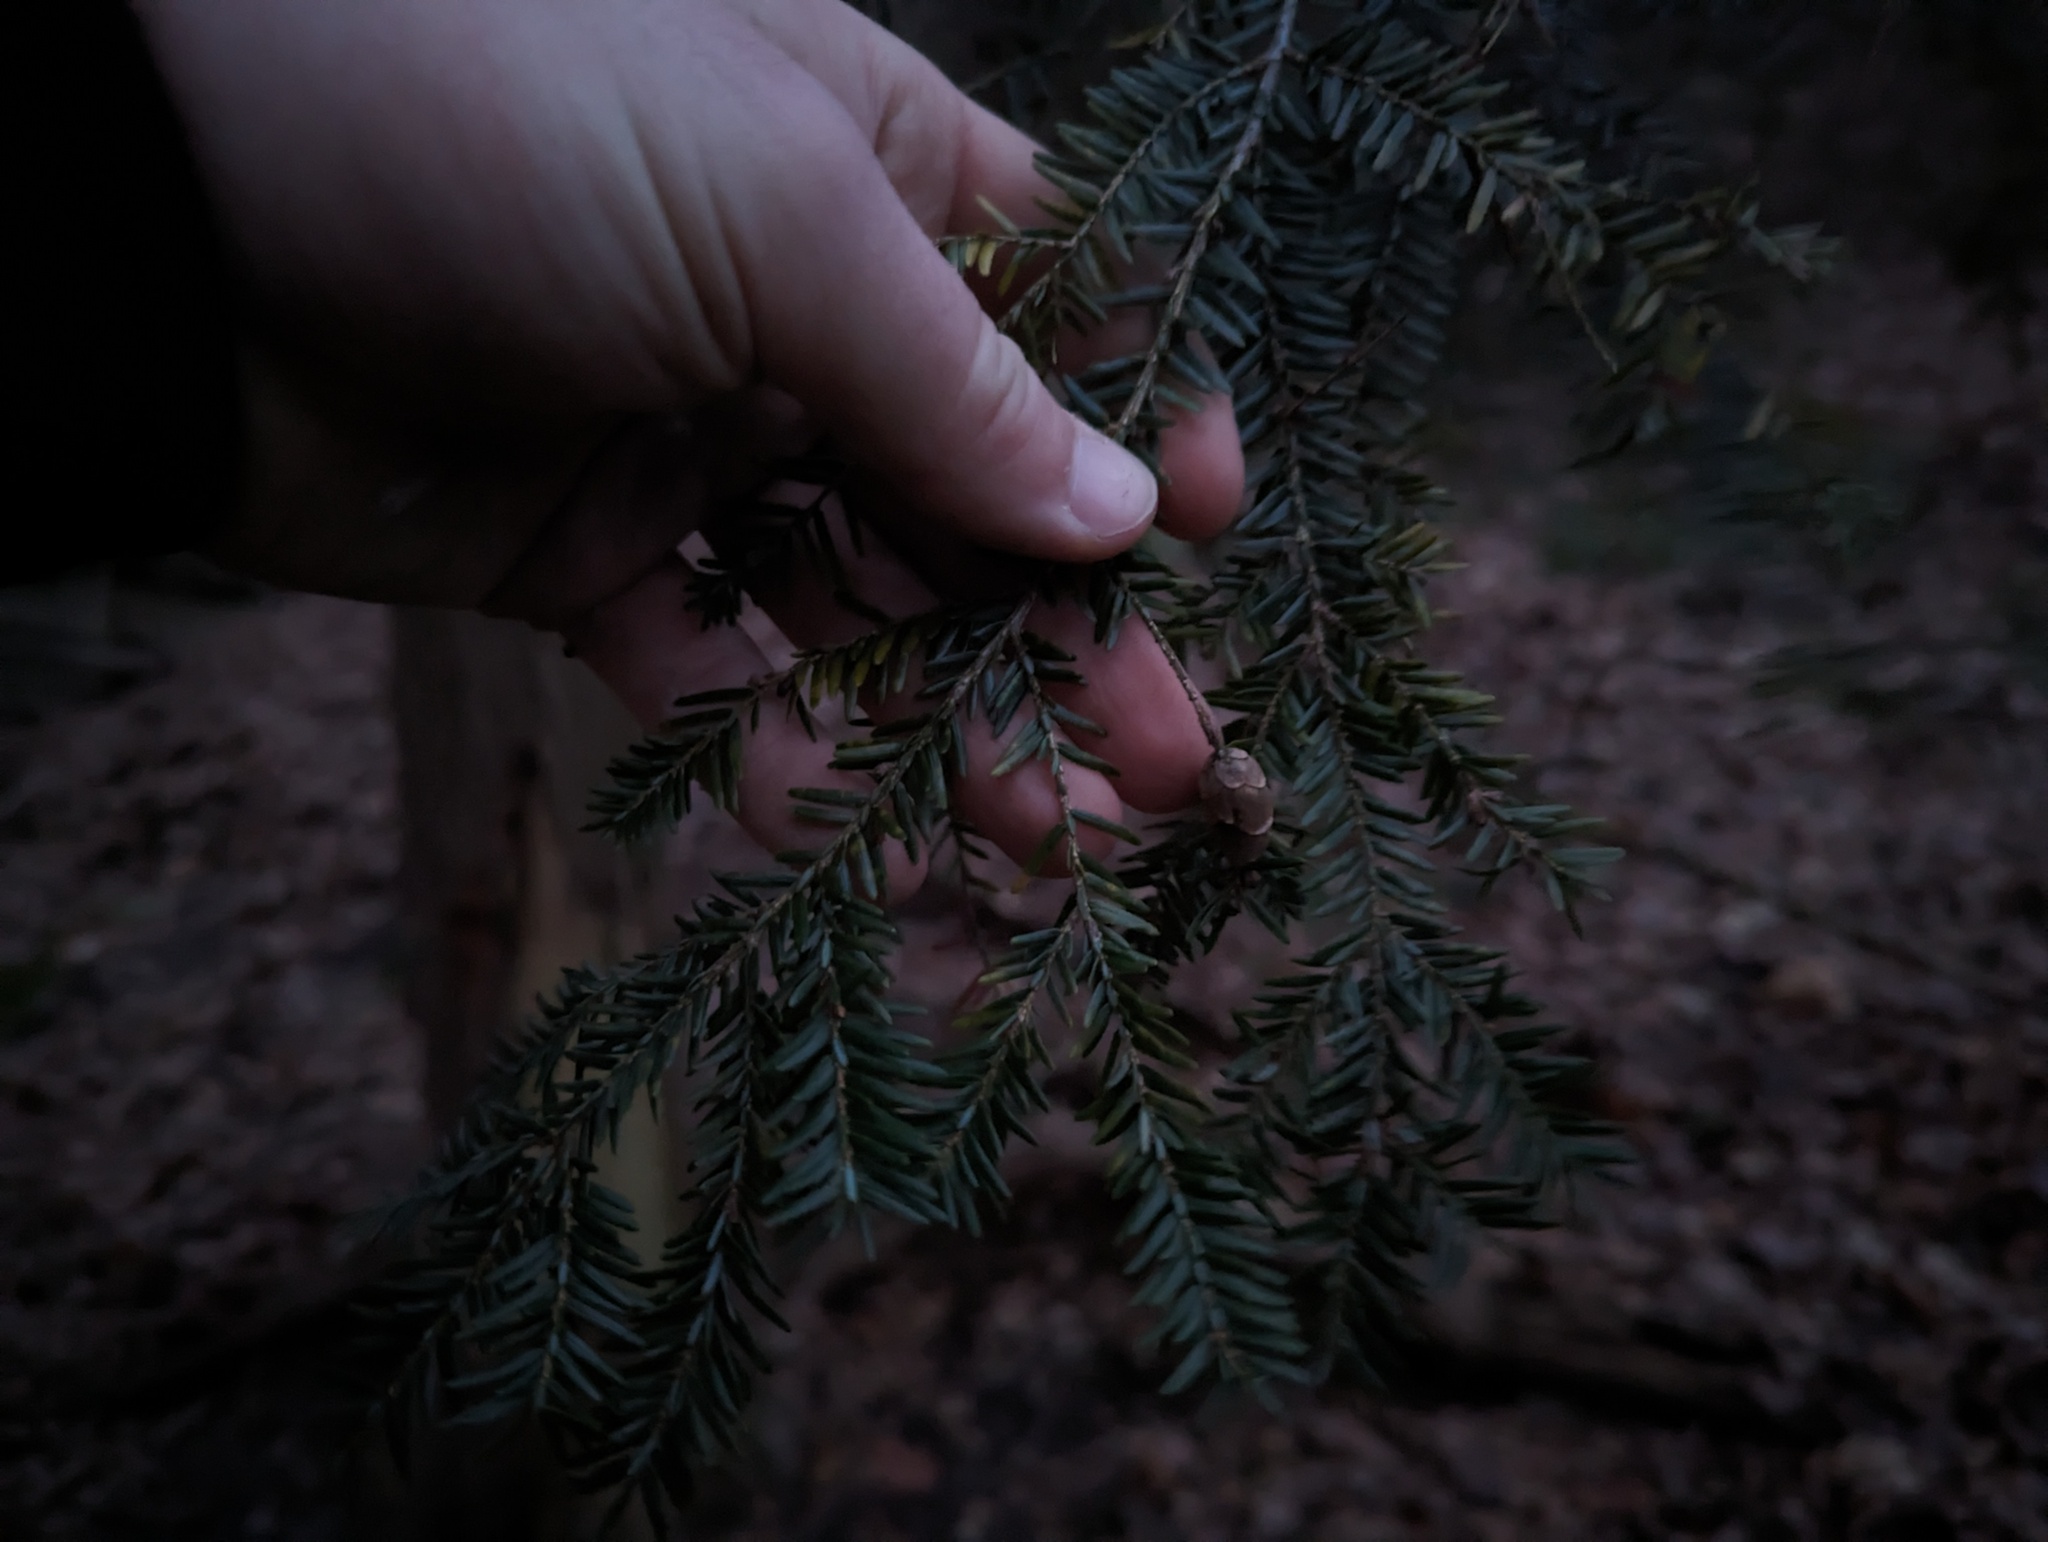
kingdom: Plantae
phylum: Tracheophyta
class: Pinopsida
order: Pinales
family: Pinaceae
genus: Tsuga
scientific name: Tsuga canadensis
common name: Eastern hemlock
